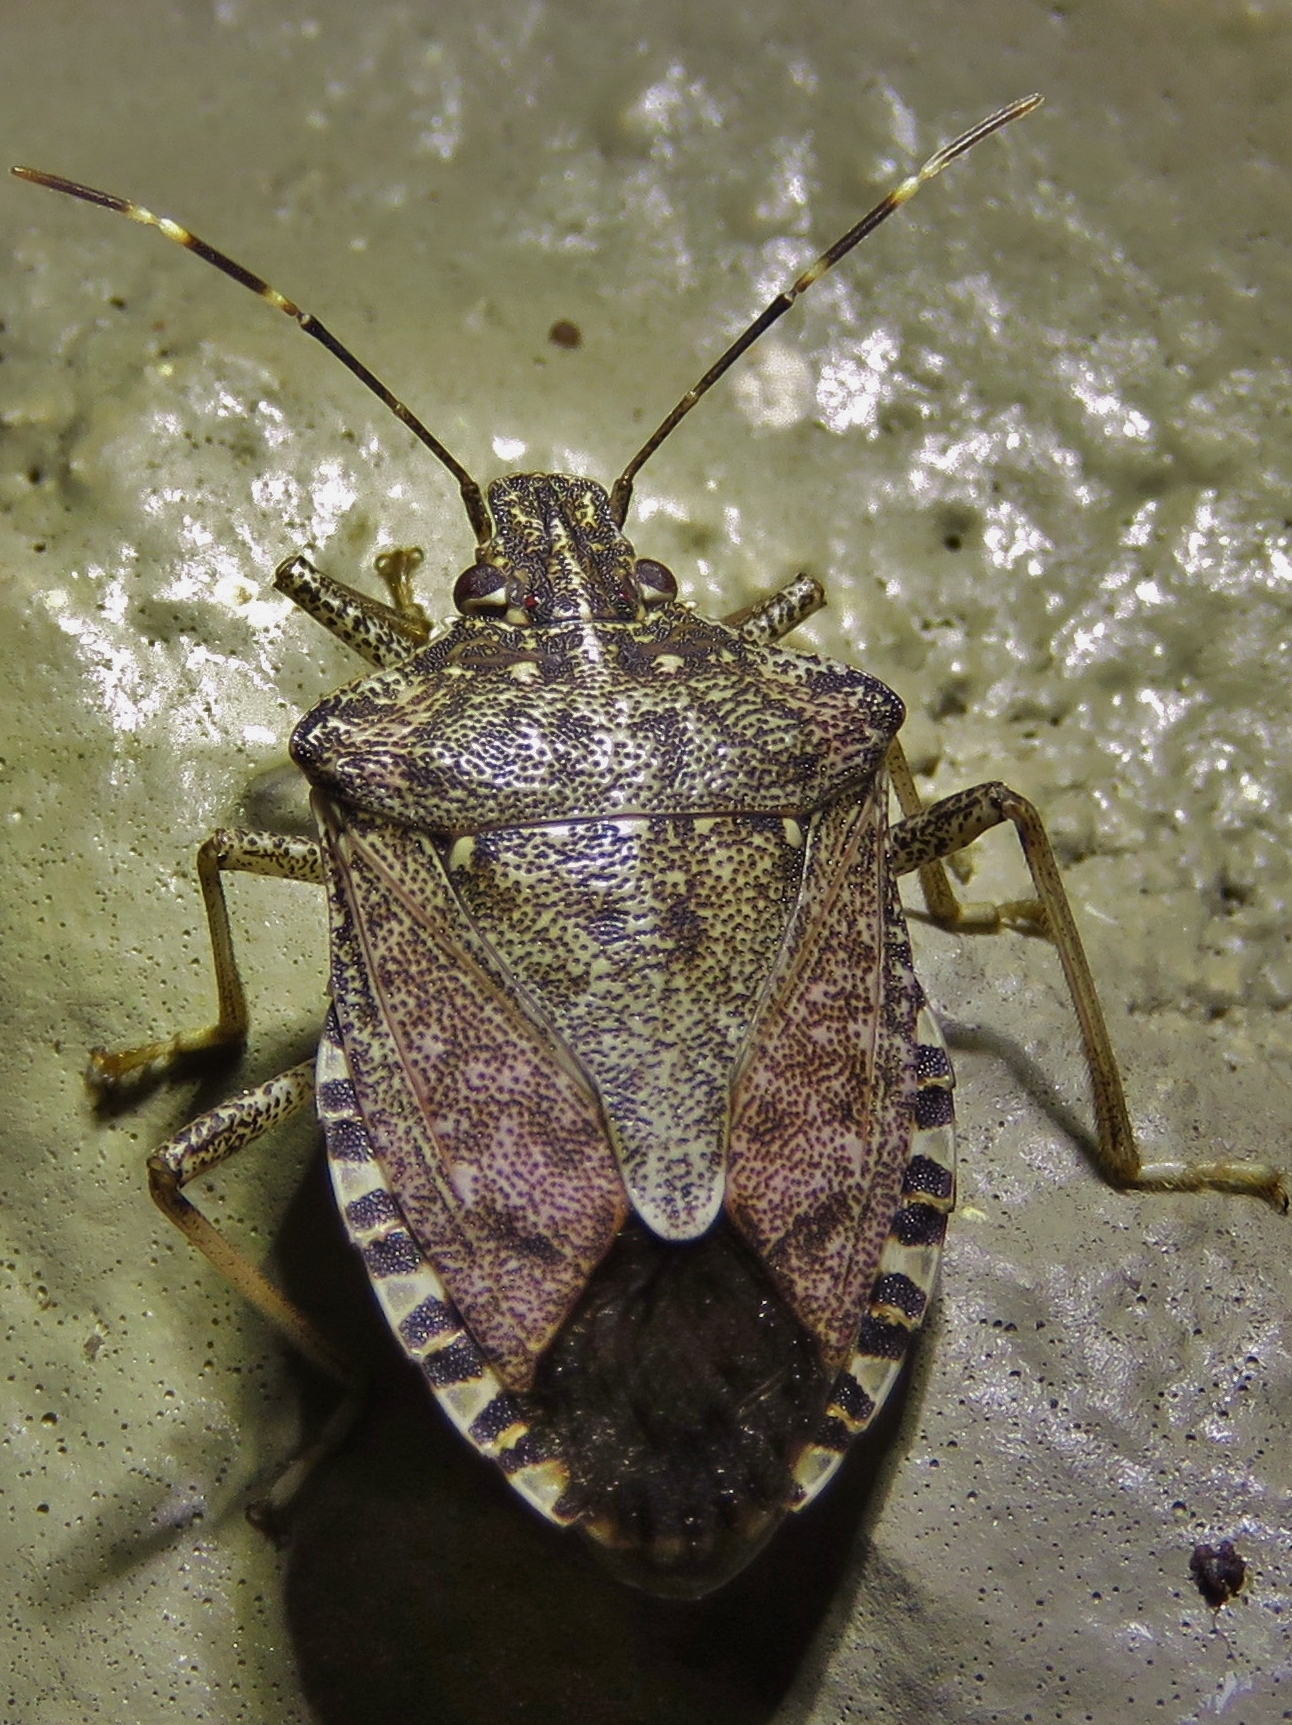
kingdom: Animalia
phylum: Arthropoda
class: Insecta
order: Hemiptera
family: Pentatomidae
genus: Halyomorpha
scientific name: Halyomorpha halys
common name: Brown marmorated stink bug
